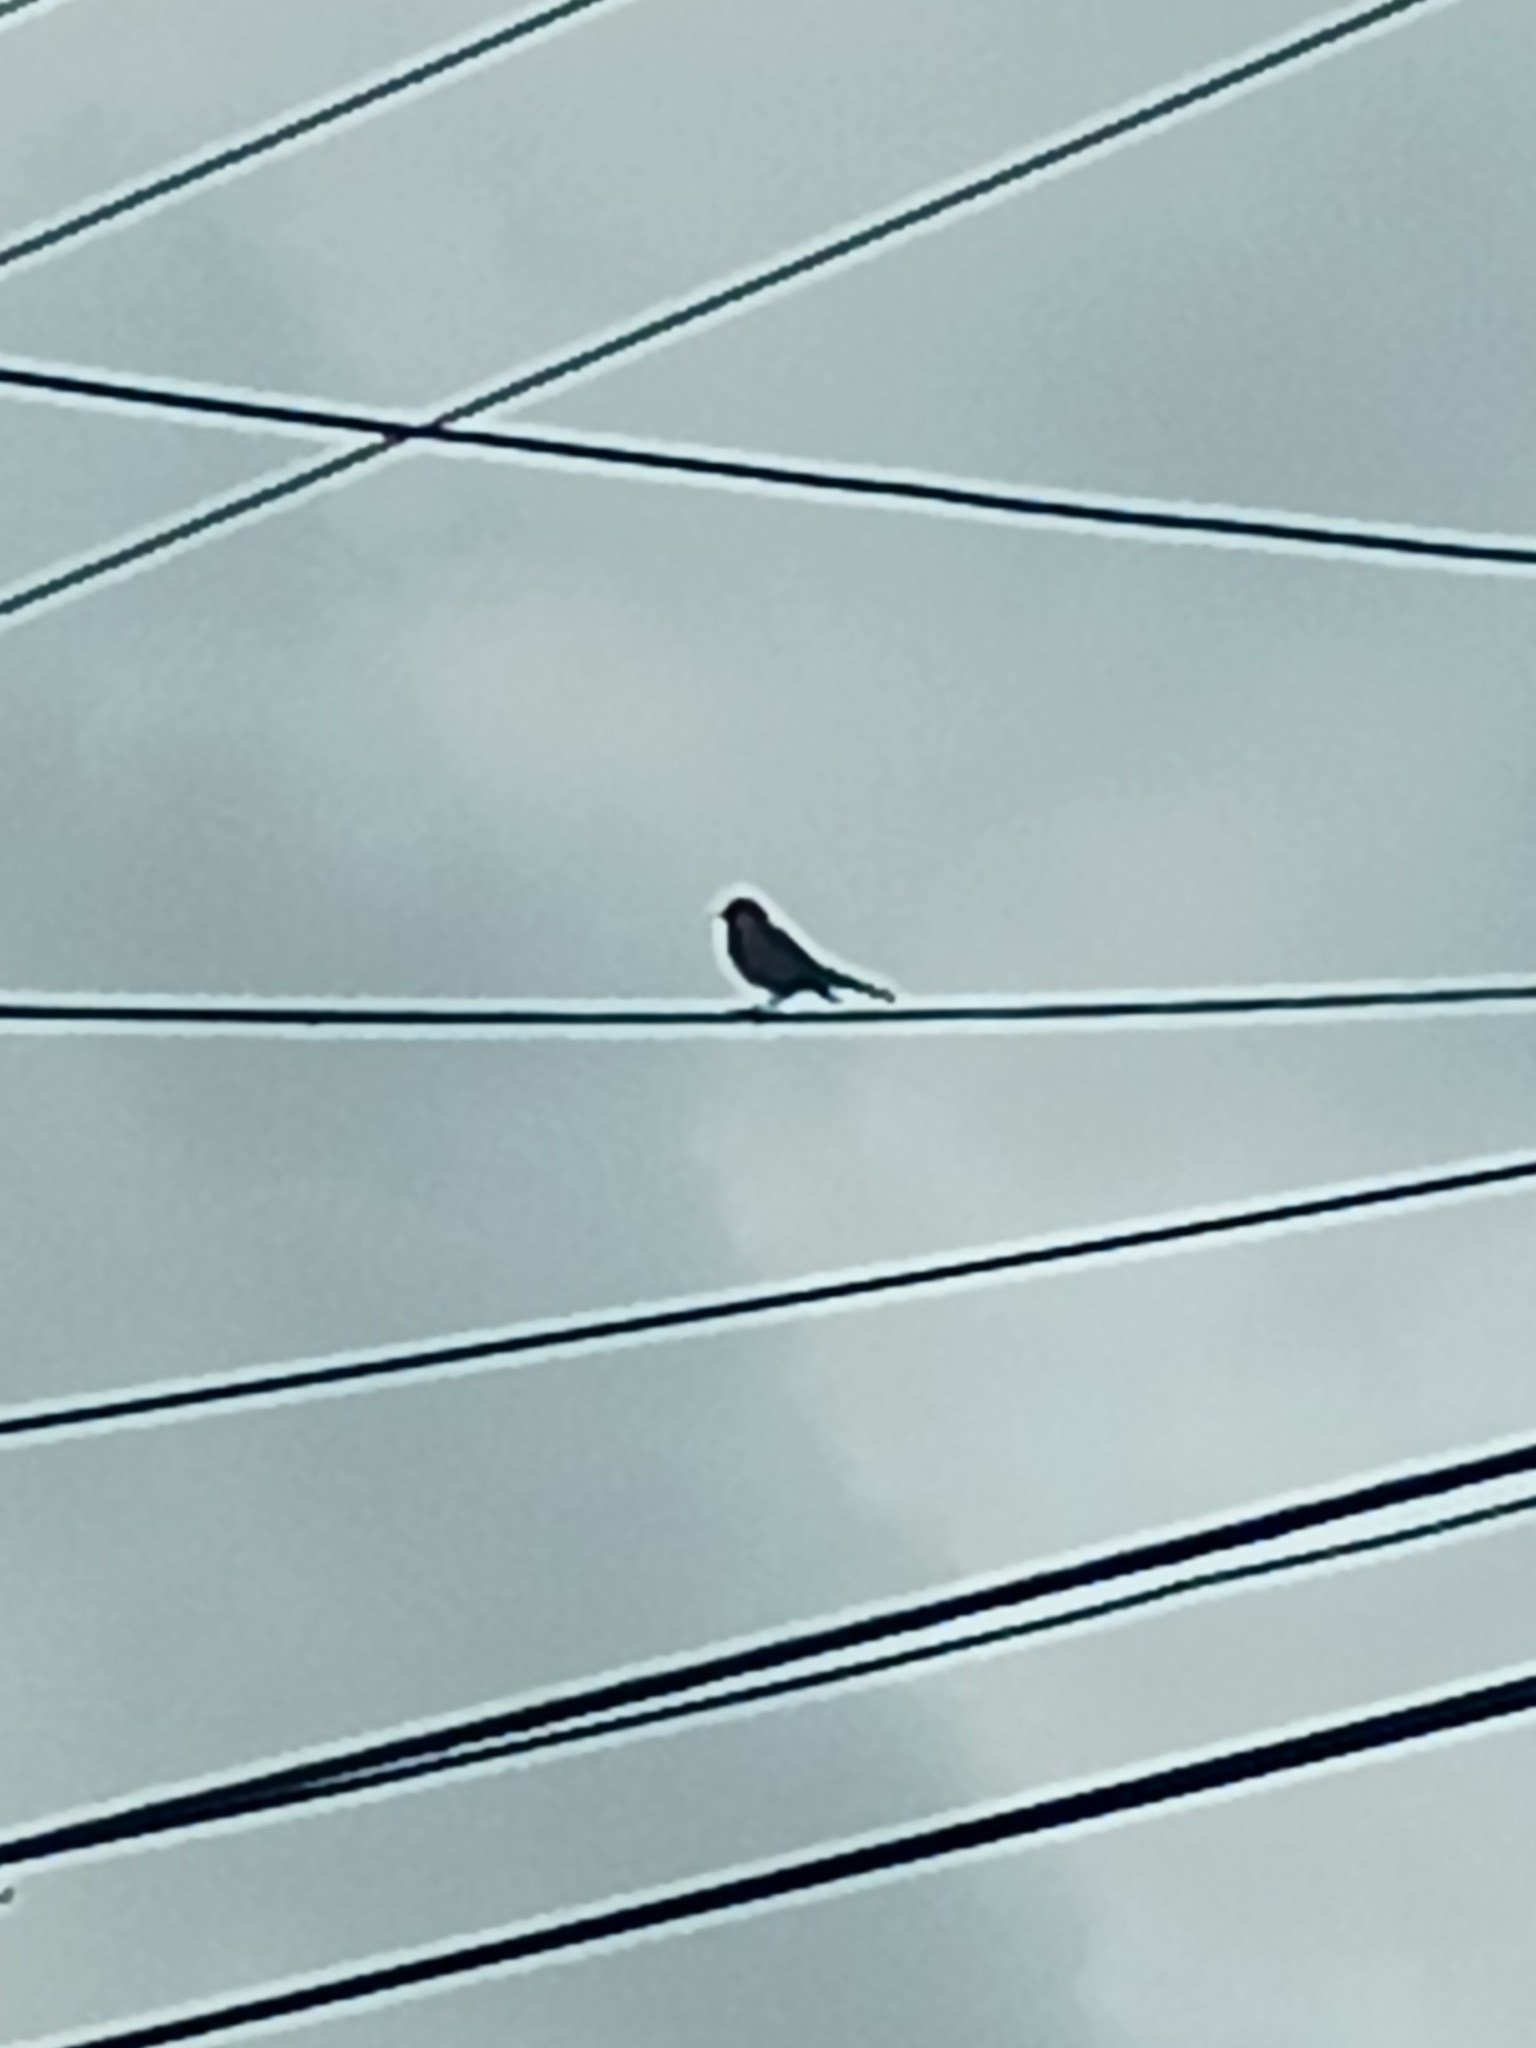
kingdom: Animalia
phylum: Chordata
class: Aves
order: Passeriformes
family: Parulidae
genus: Setophaga
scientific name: Setophaga palmarum
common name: Palm warbler
